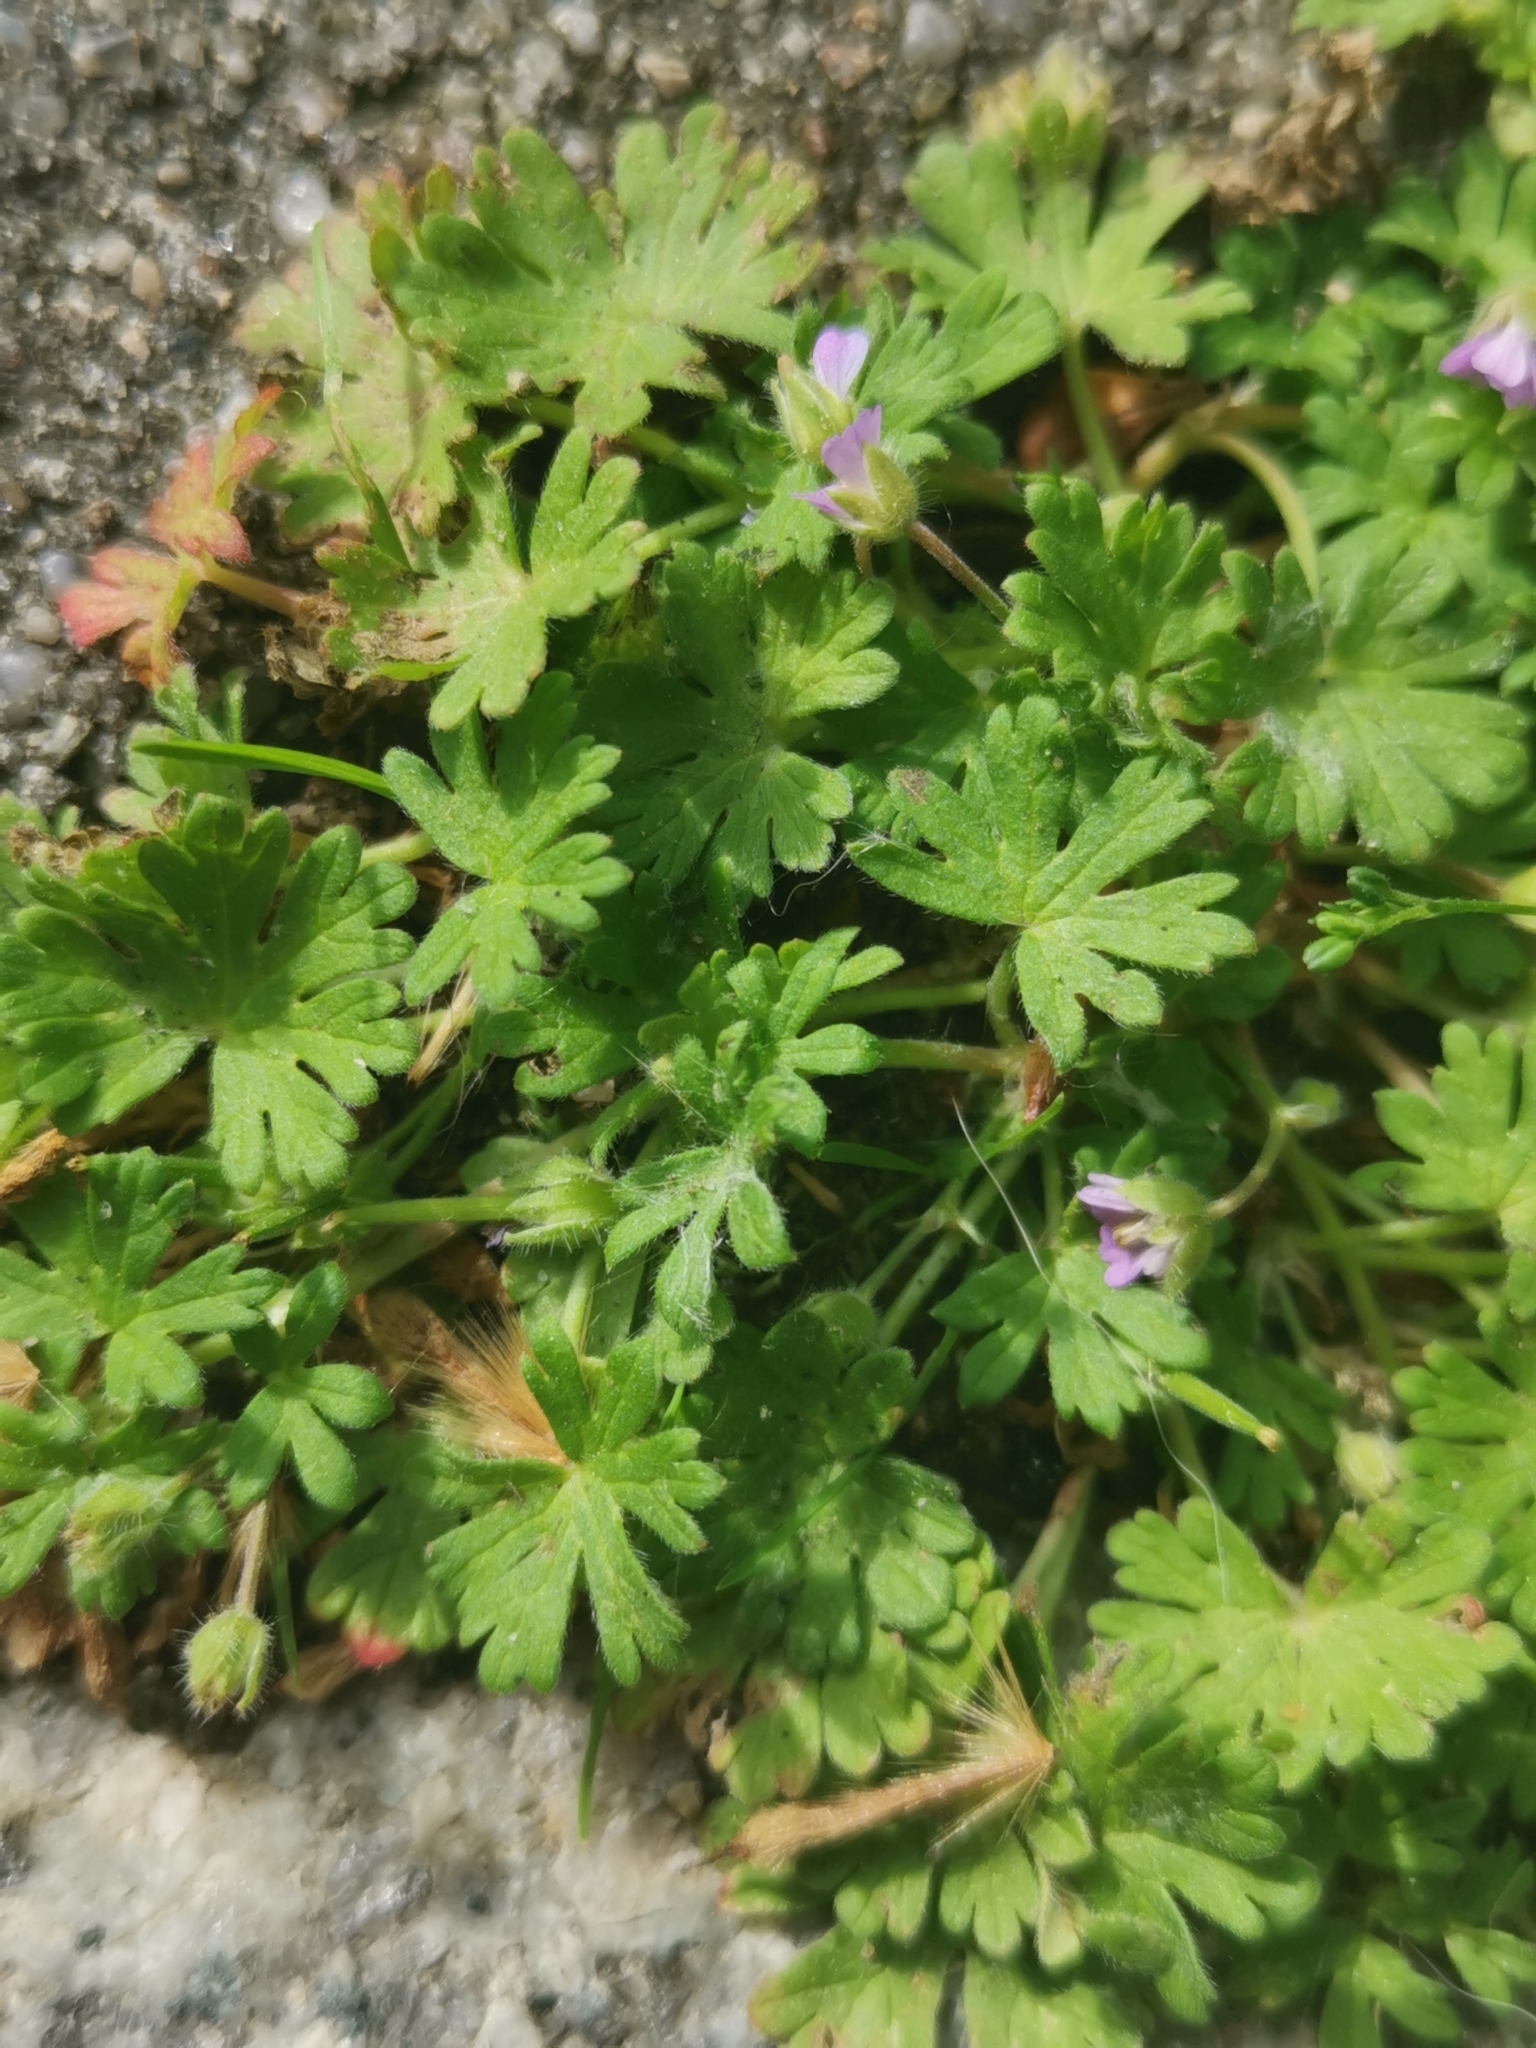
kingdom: Plantae
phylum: Tracheophyta
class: Magnoliopsida
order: Geraniales
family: Geraniaceae
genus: Geranium
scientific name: Geranium pusillum
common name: Small geranium
